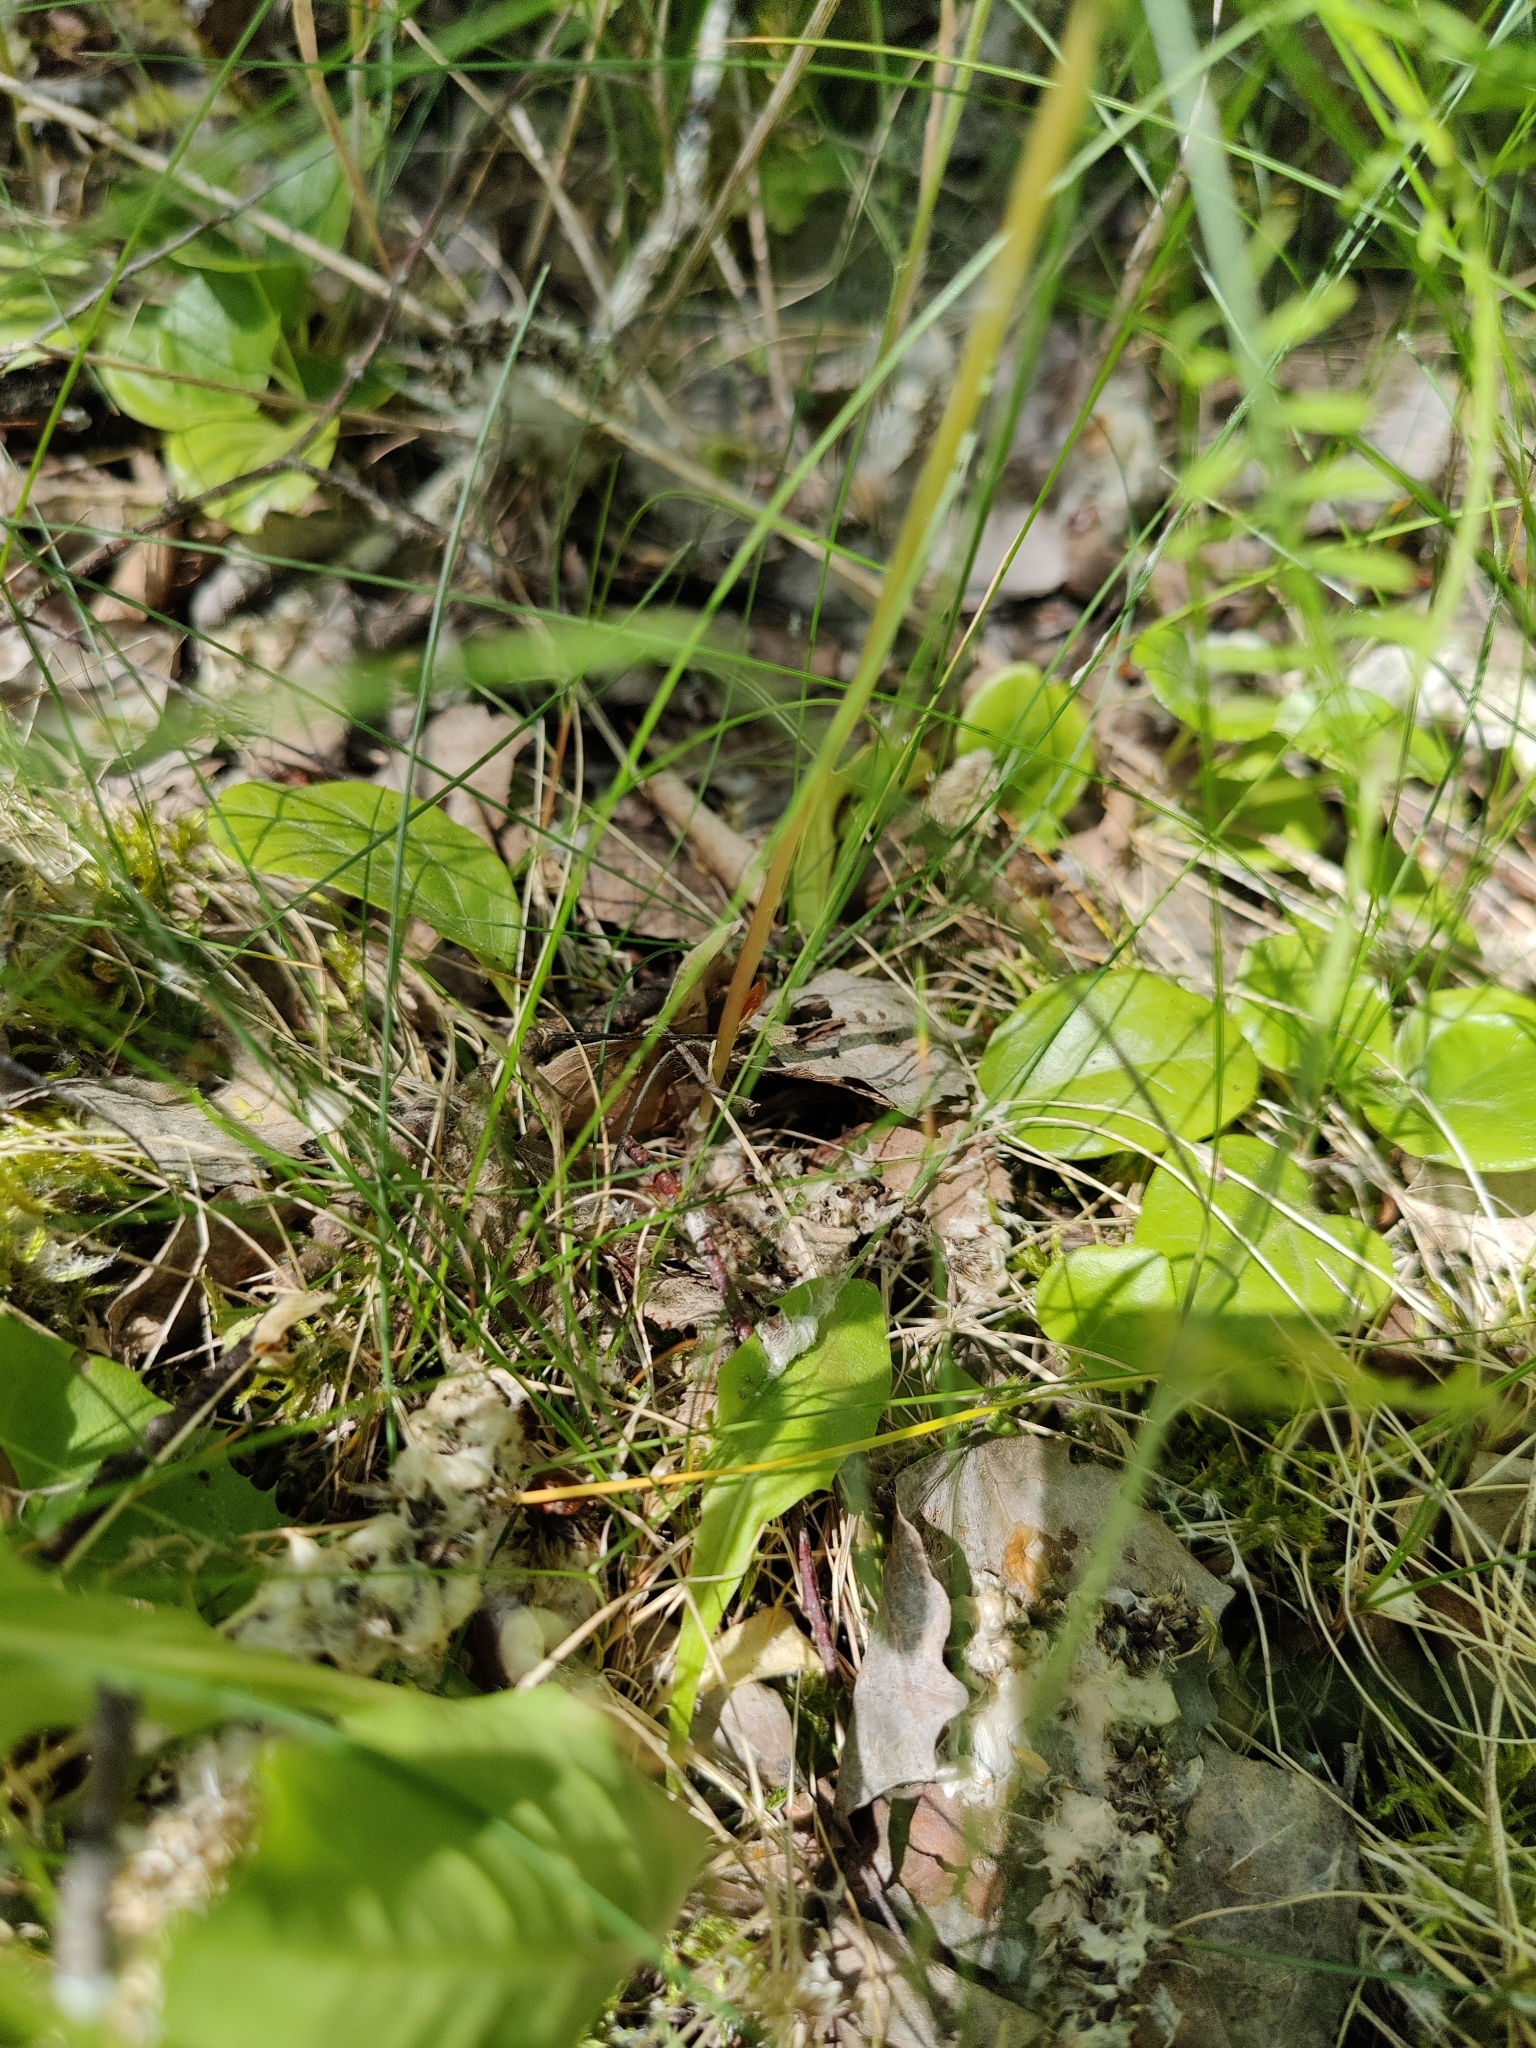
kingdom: Plantae
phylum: Tracheophyta
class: Liliopsida
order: Asparagales
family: Asparagaceae
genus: Maianthemum
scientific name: Maianthemum bifolium
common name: May lily
